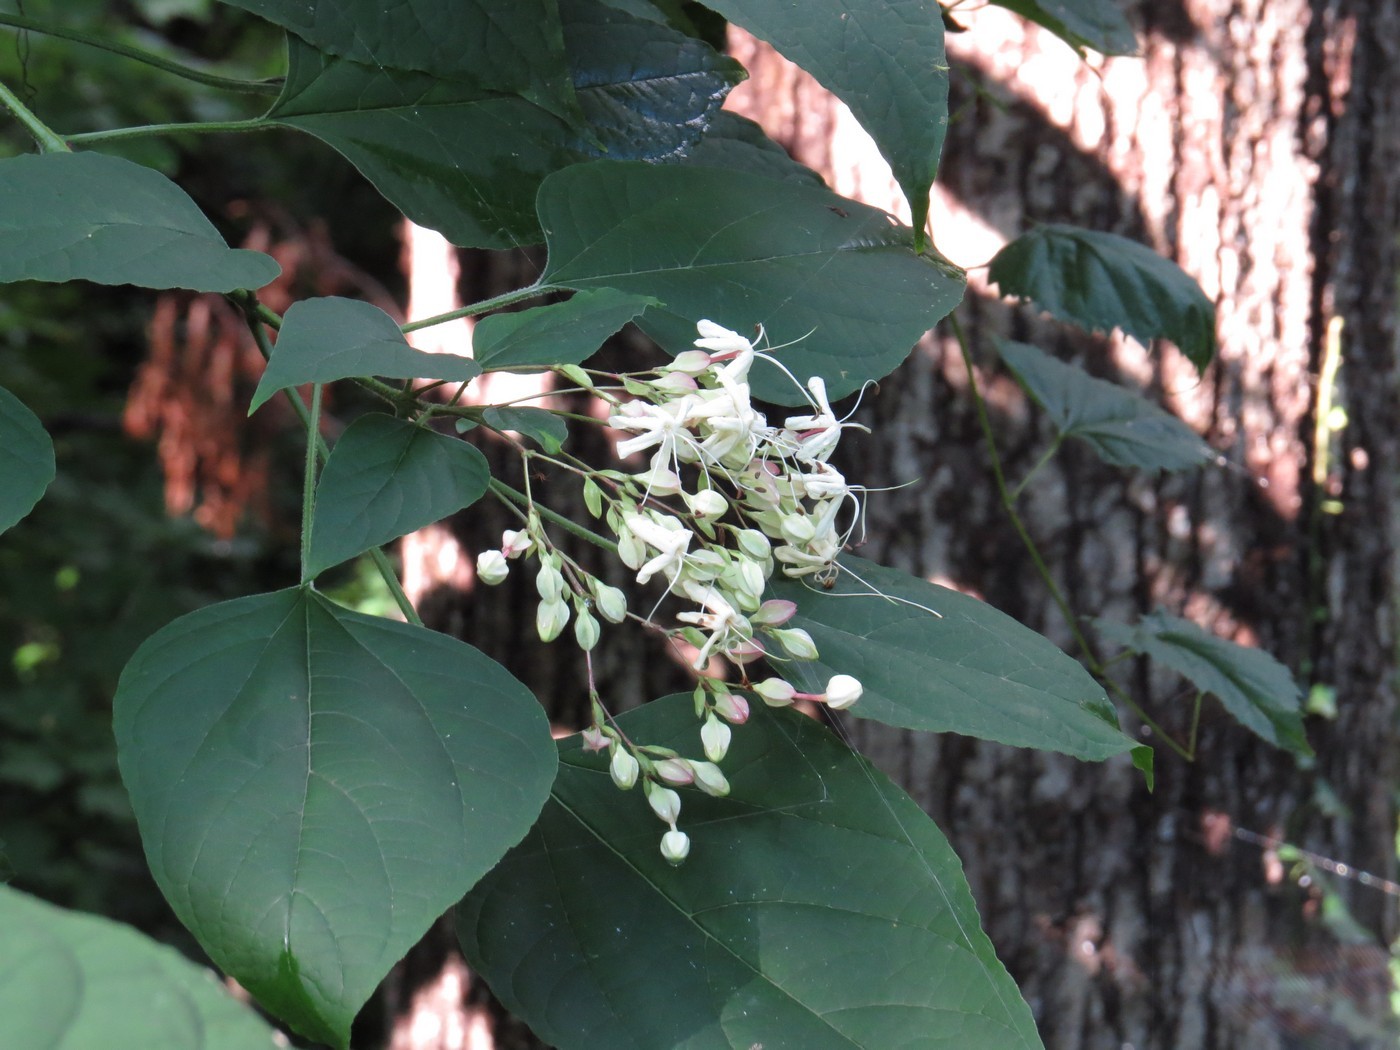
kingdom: Plantae
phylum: Tracheophyta
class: Magnoliopsida
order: Lamiales
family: Lamiaceae
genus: Clerodendrum
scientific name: Clerodendrum trichotomum
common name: Harlequin glorybower
